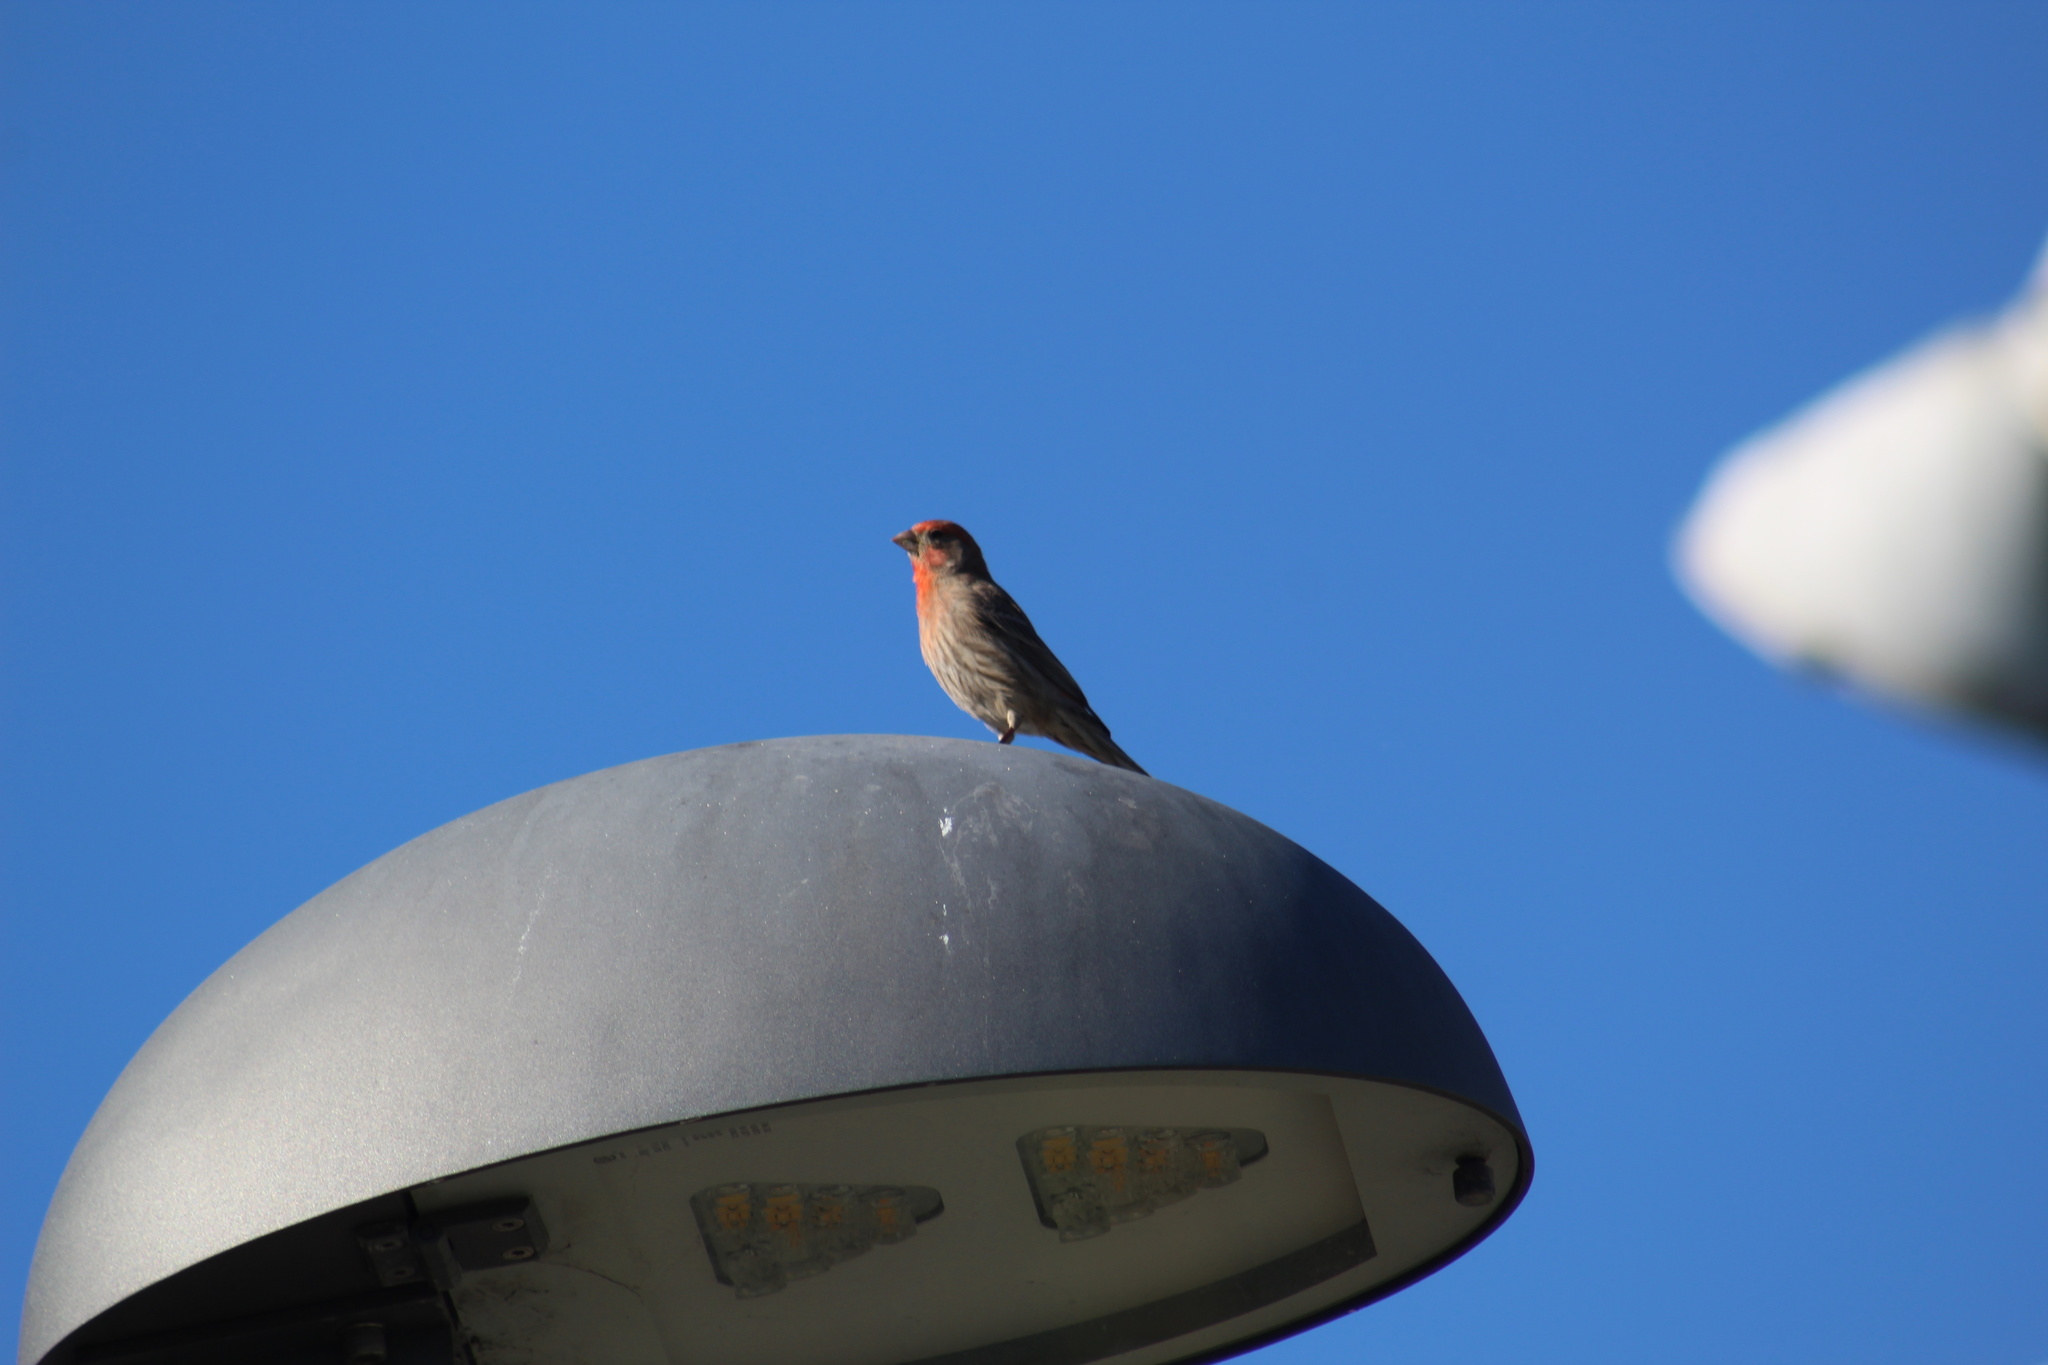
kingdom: Animalia
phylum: Chordata
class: Aves
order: Passeriformes
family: Fringillidae
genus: Haemorhous
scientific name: Haemorhous mexicanus
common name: House finch
